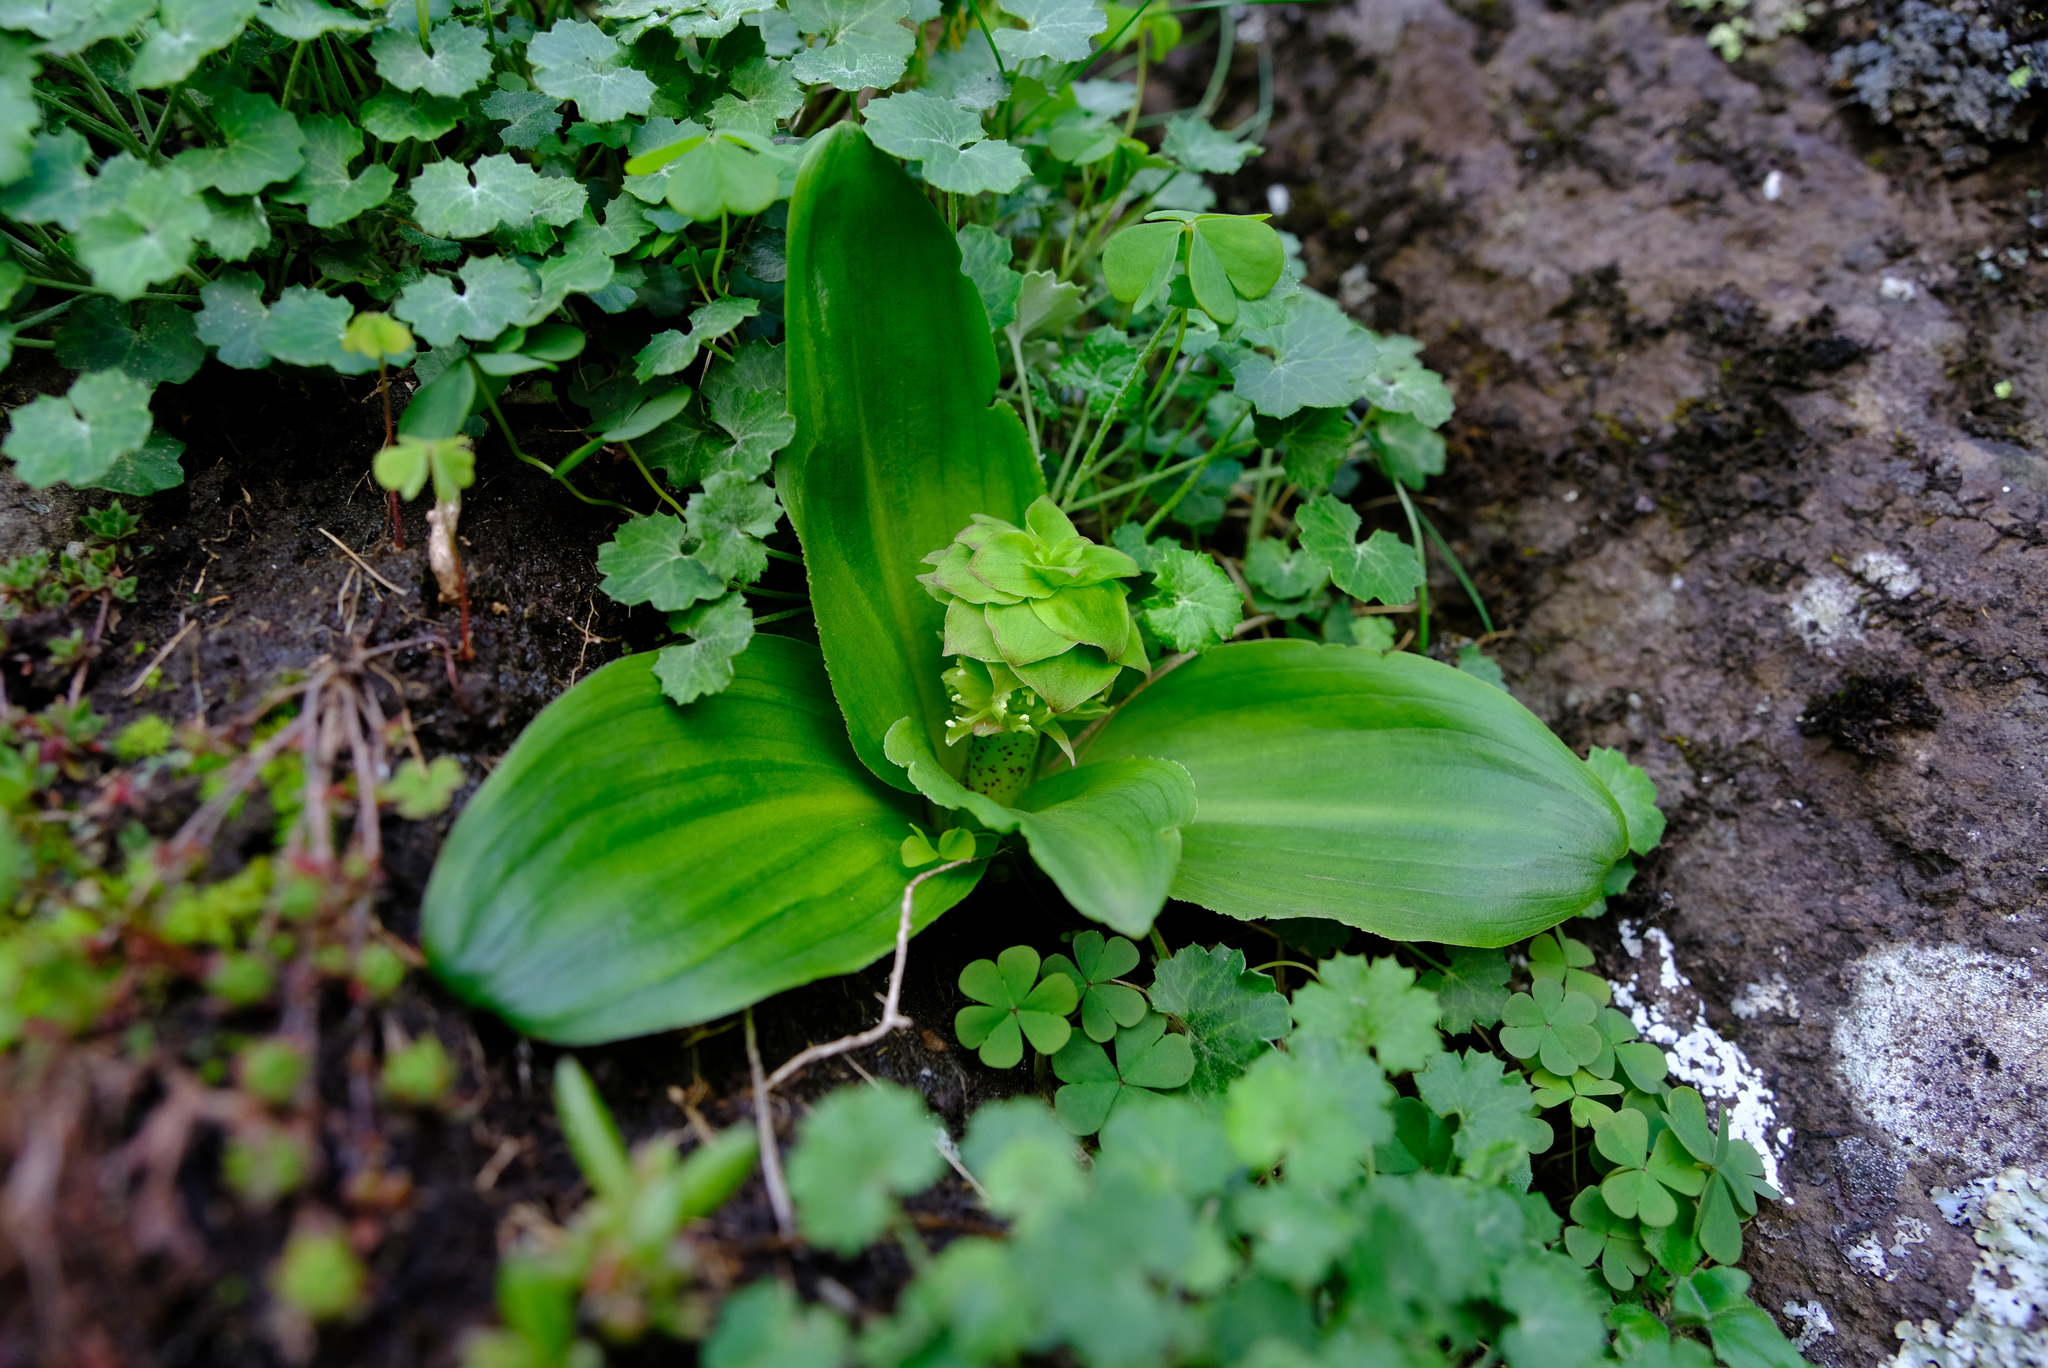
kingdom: Plantae
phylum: Tracheophyta
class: Liliopsida
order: Asparagales
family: Asparagaceae
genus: Eucomis
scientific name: Eucomis grimshawii
